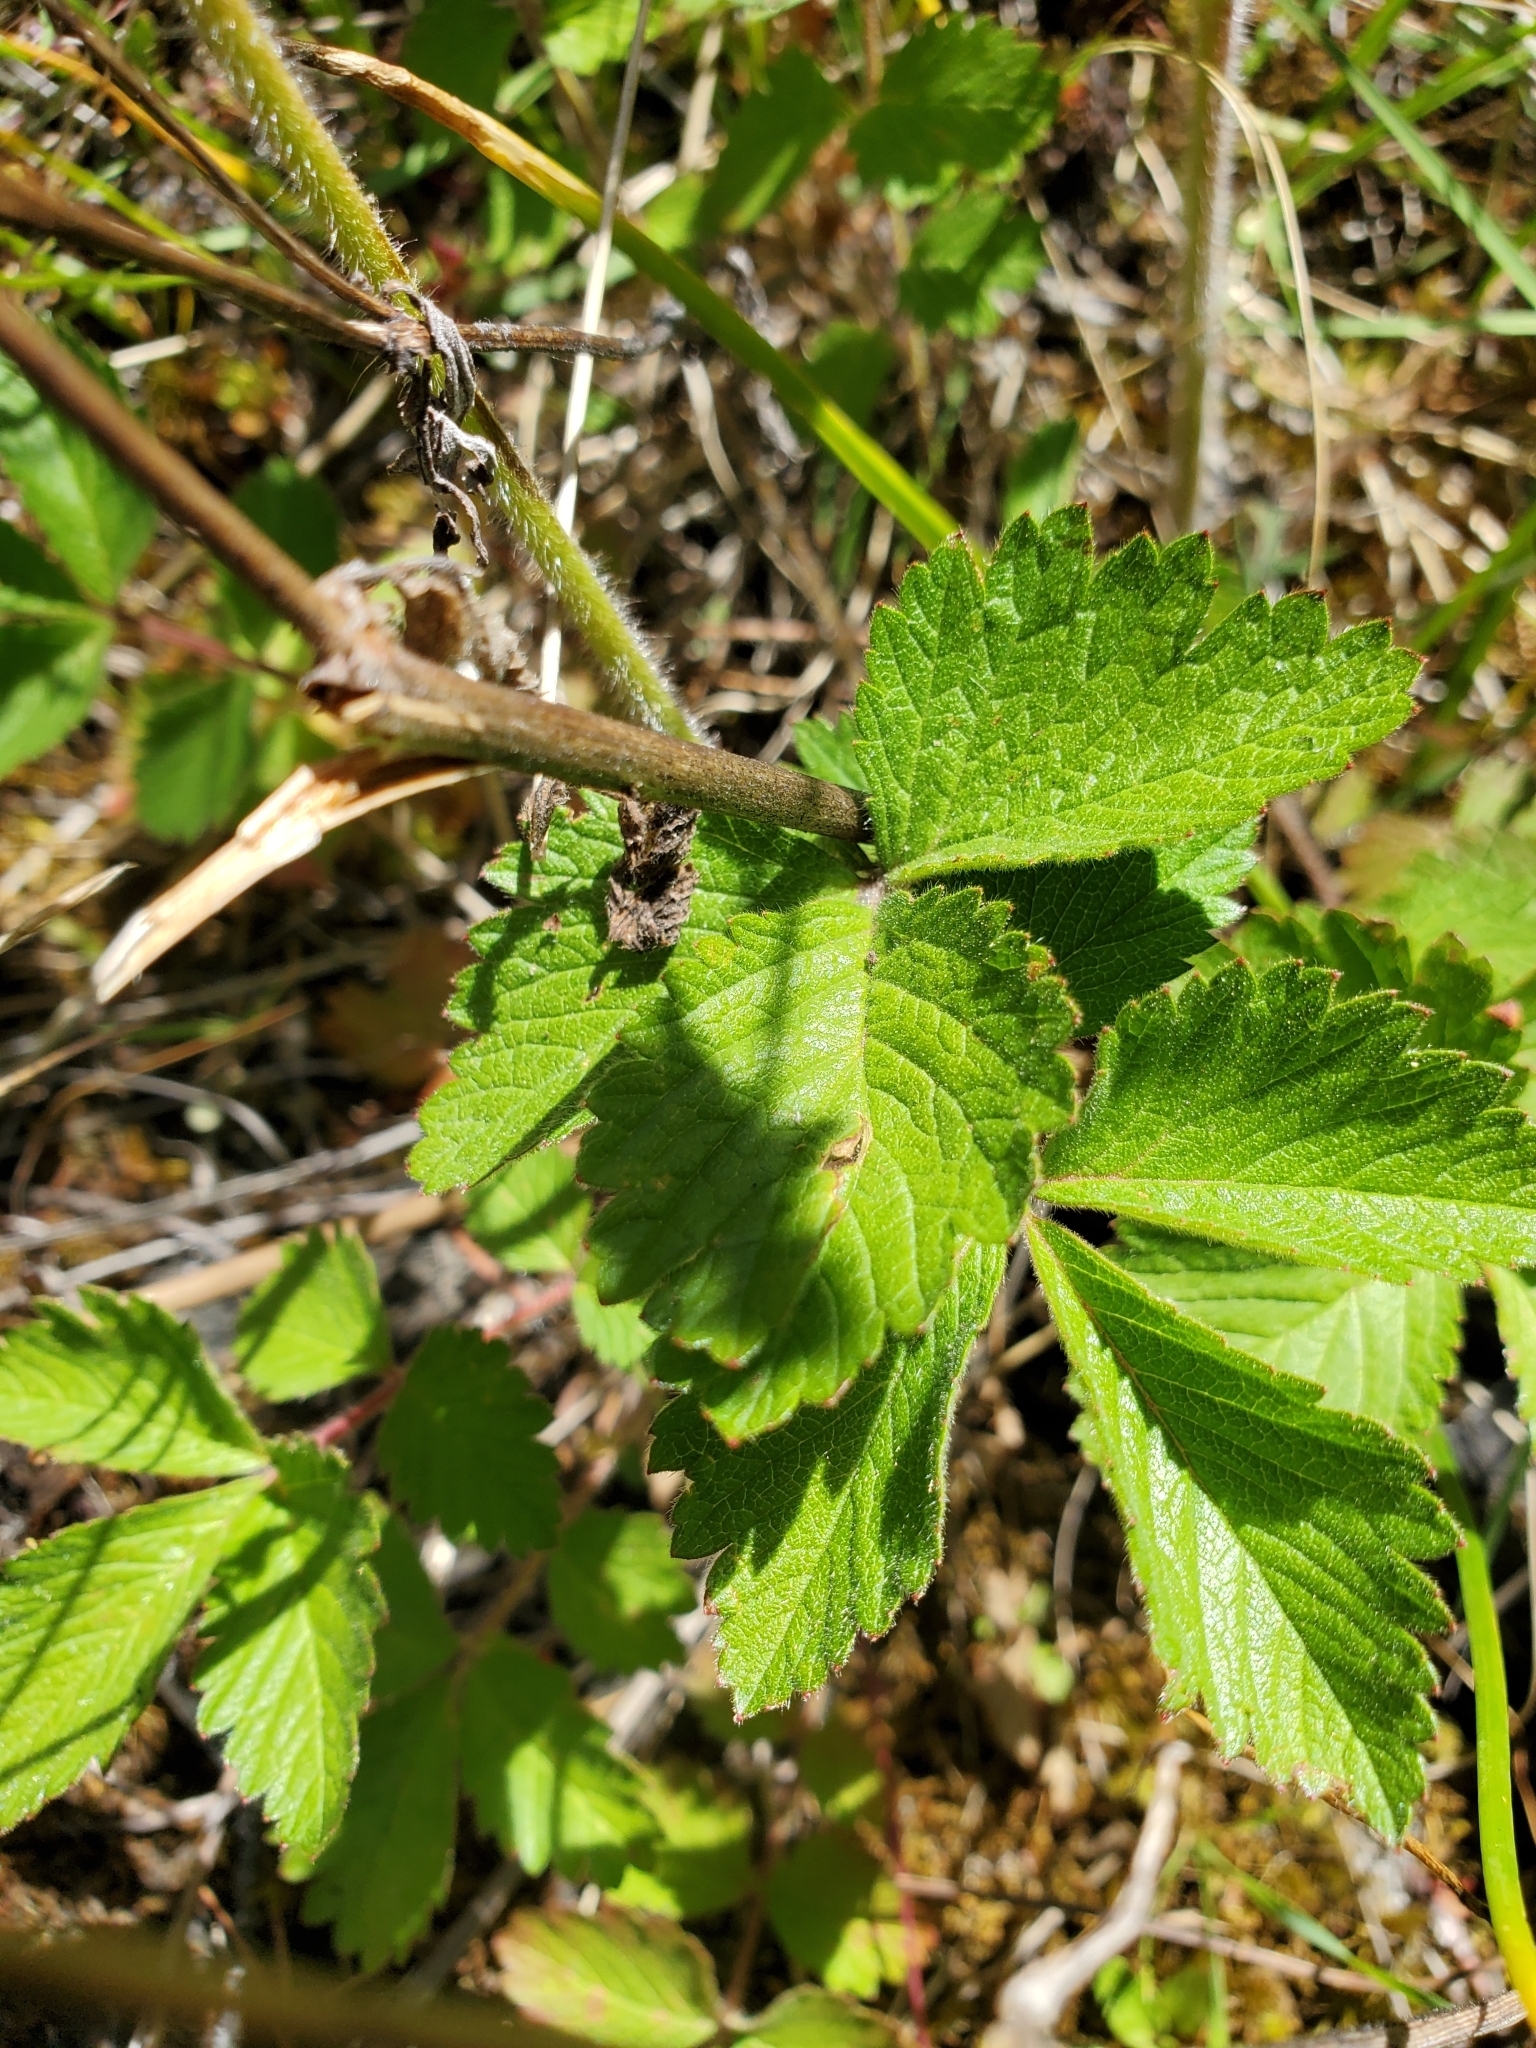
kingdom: Plantae
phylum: Tracheophyta
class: Magnoliopsida
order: Rosales
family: Rosaceae
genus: Drymocallis
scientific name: Drymocallis glandulosa
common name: Sticky cinquefoil
